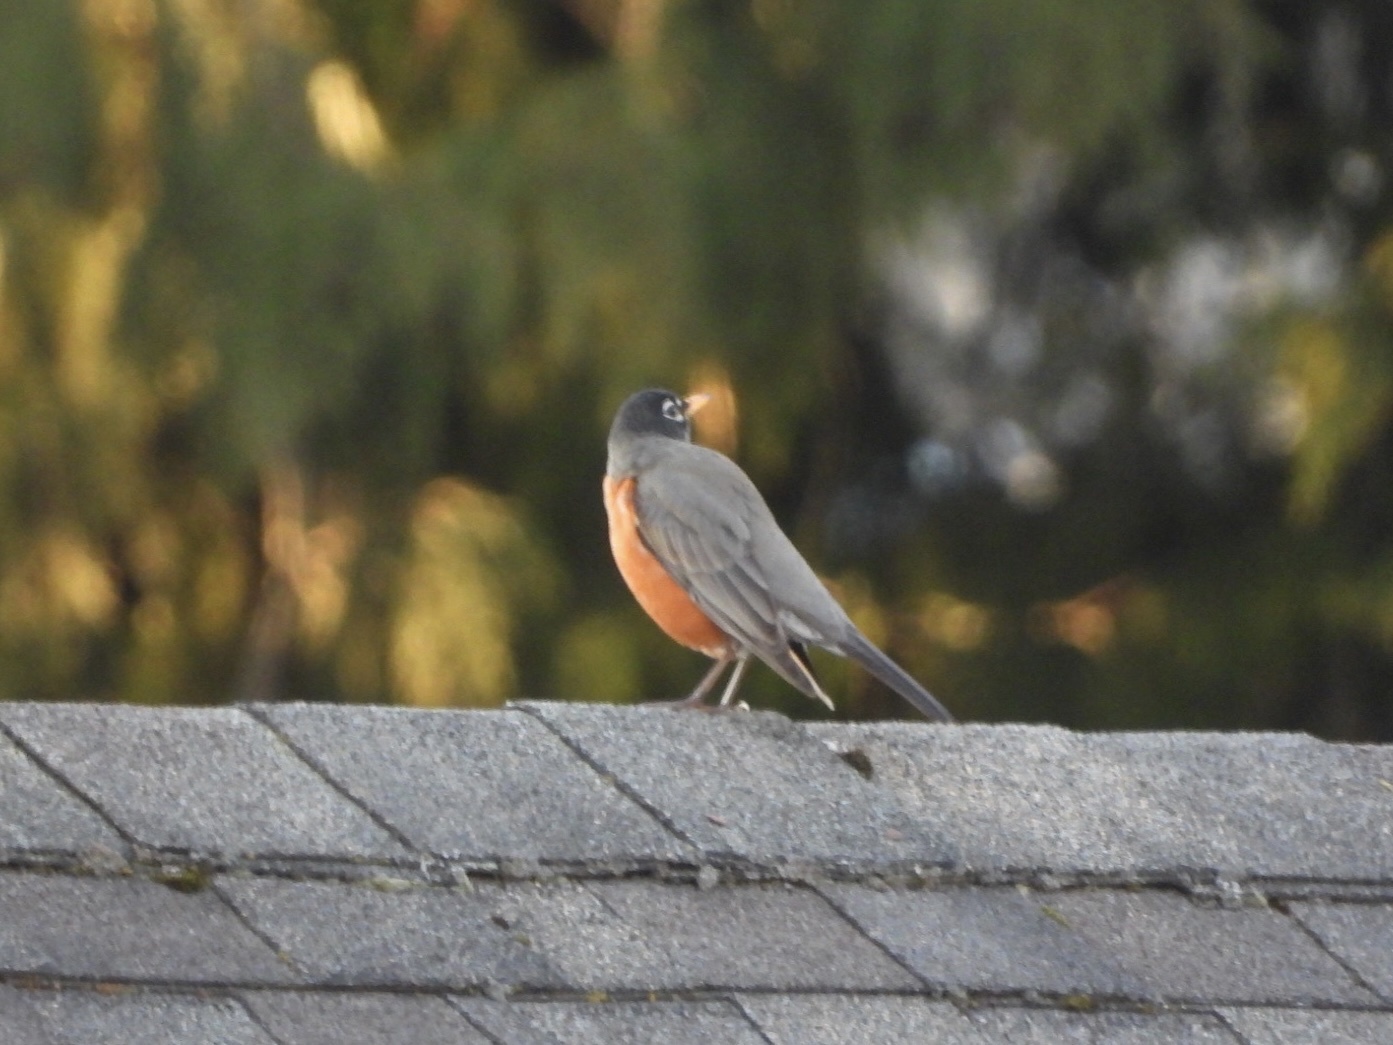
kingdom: Animalia
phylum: Chordata
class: Aves
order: Passeriformes
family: Turdidae
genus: Turdus
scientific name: Turdus migratorius
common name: American robin
